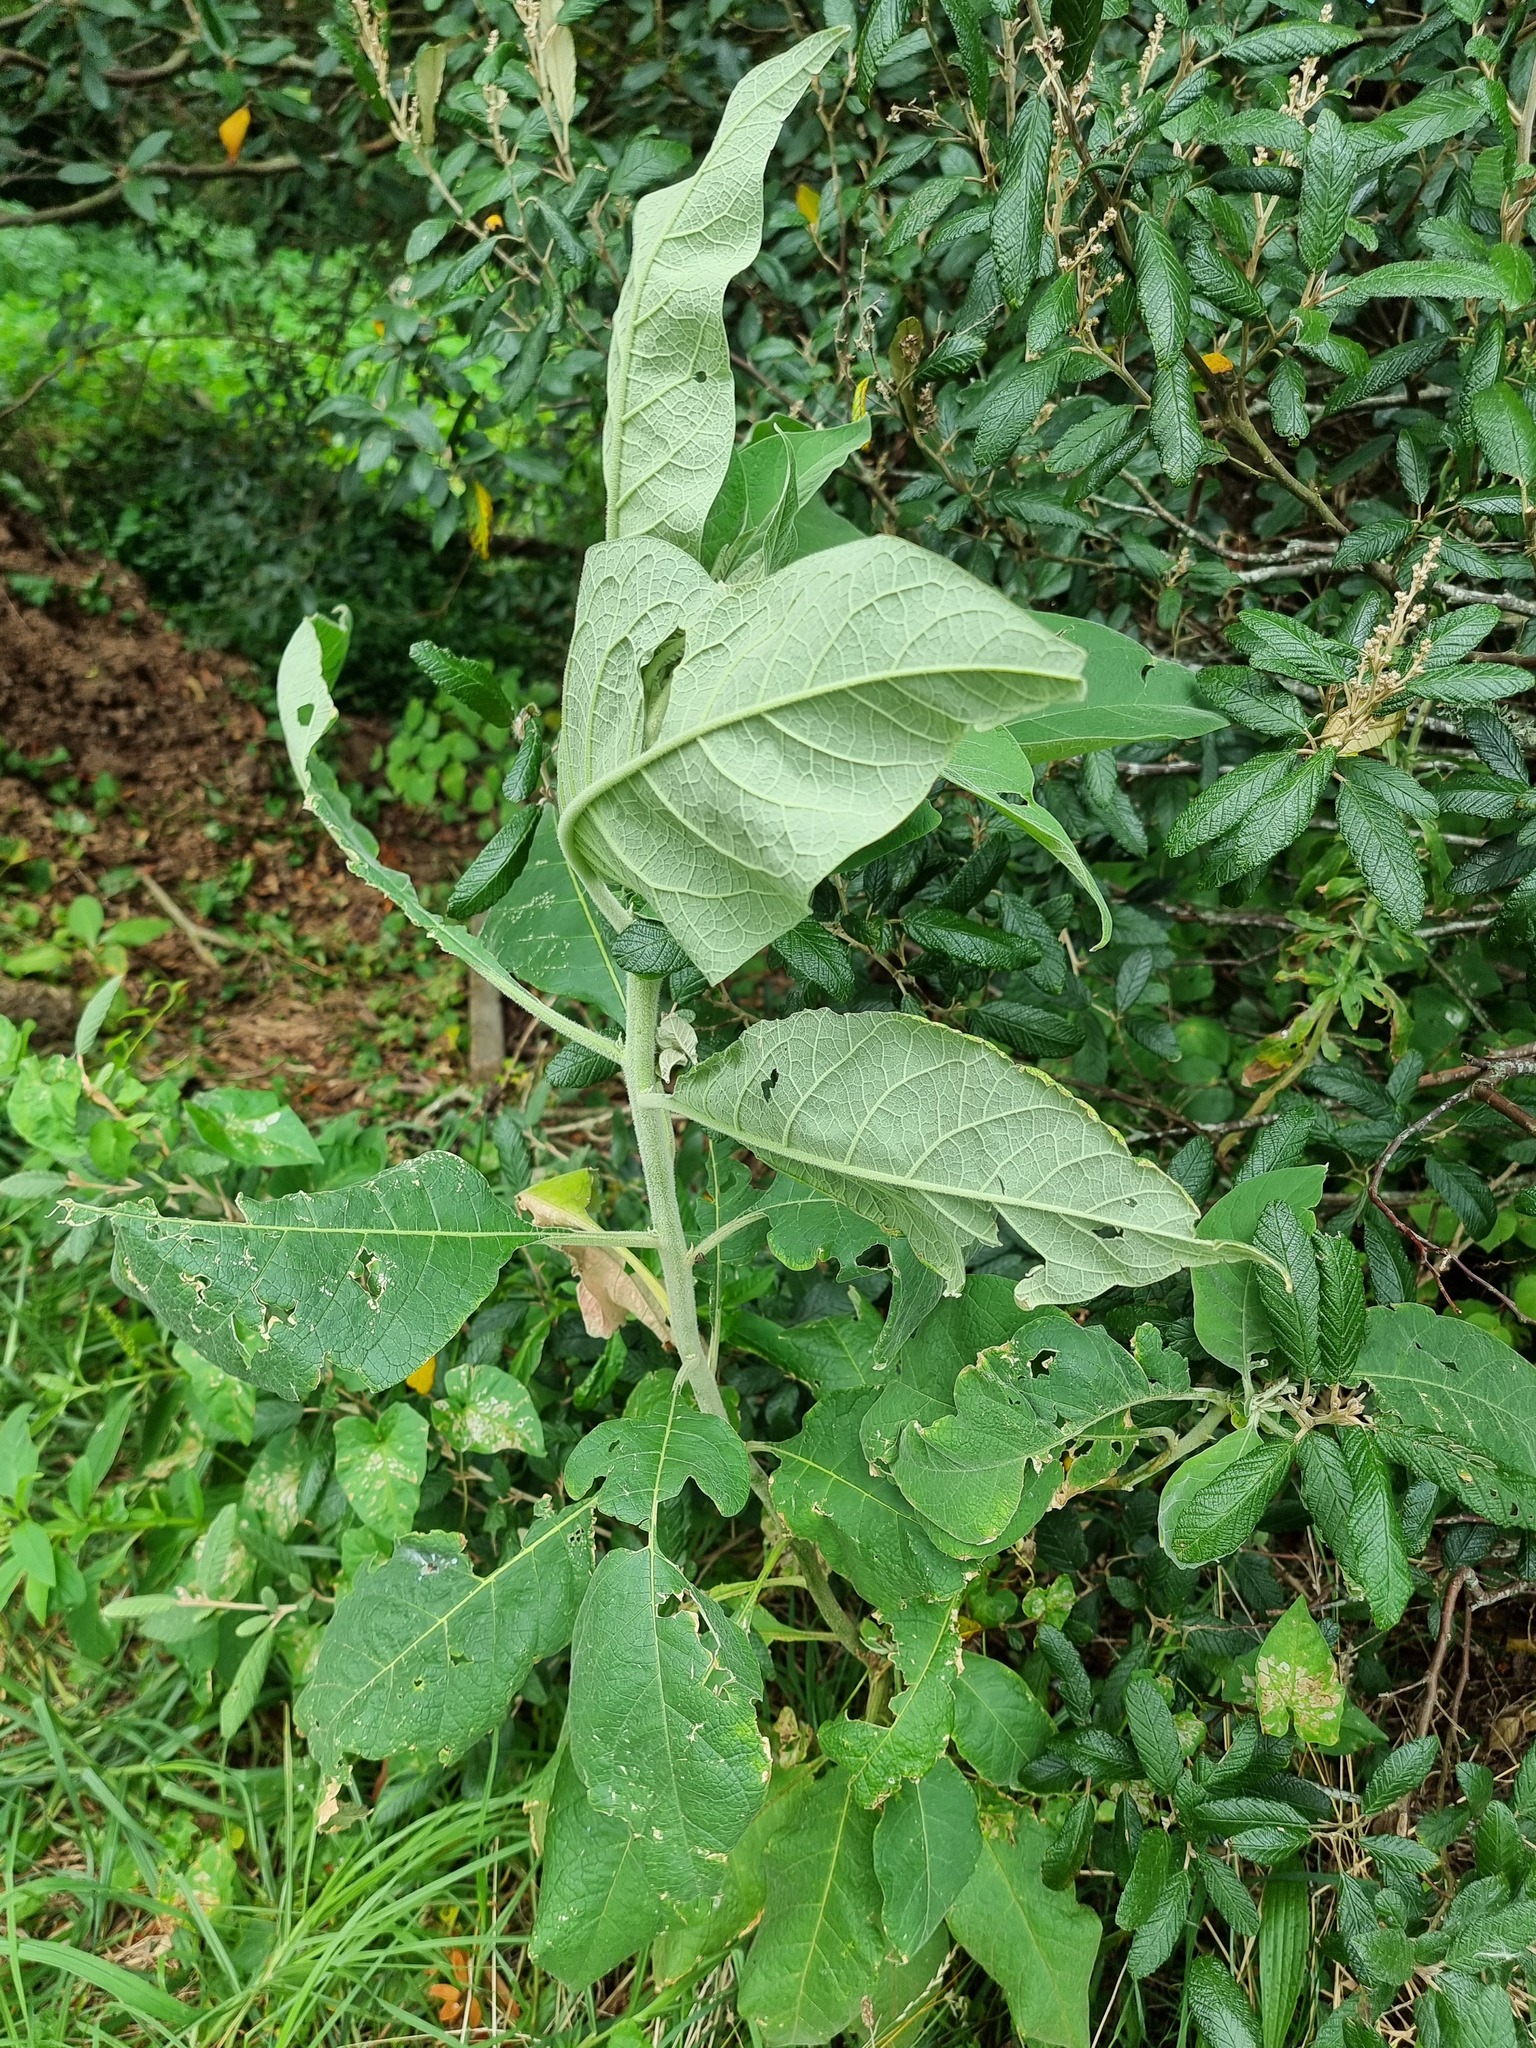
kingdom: Plantae
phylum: Tracheophyta
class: Magnoliopsida
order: Solanales
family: Solanaceae
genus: Solanum
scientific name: Solanum mauritianum
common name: Earleaf nightshade
